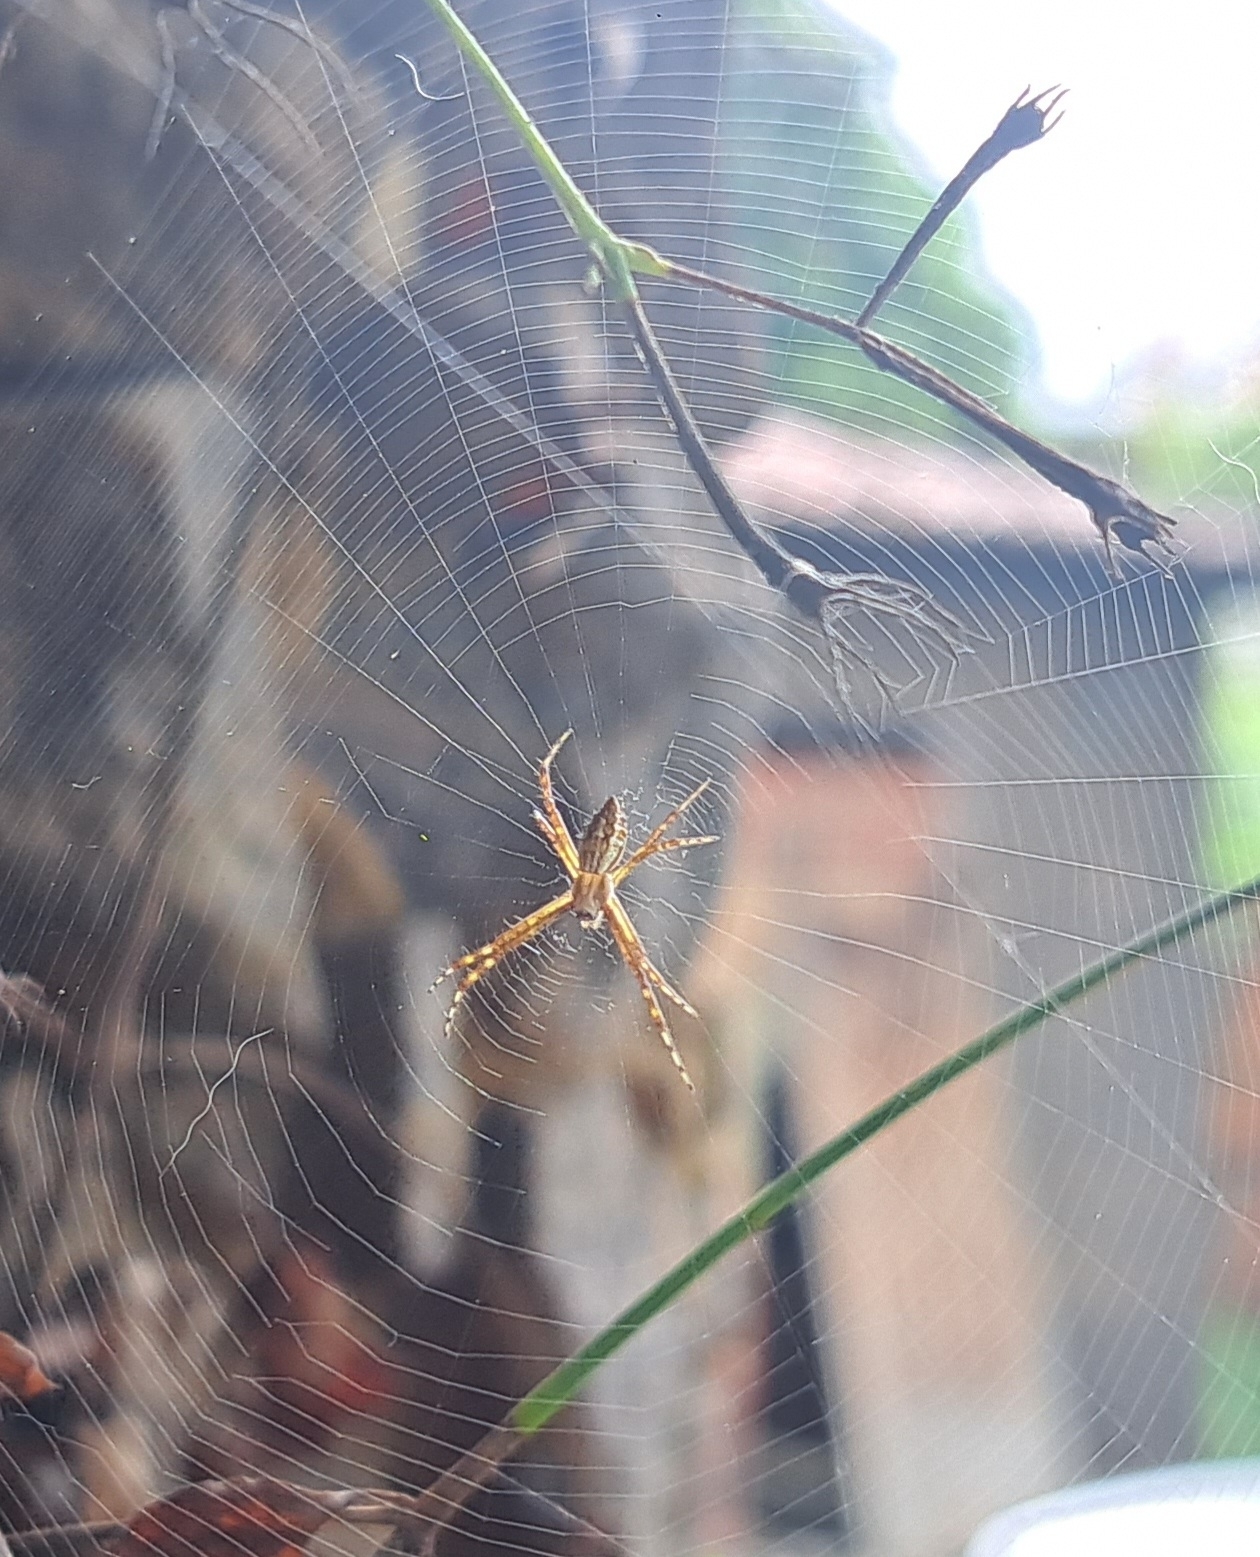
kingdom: Animalia
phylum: Arthropoda
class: Arachnida
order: Araneae
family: Araneidae
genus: Argiope
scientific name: Argiope argentata
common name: Orb weavers
